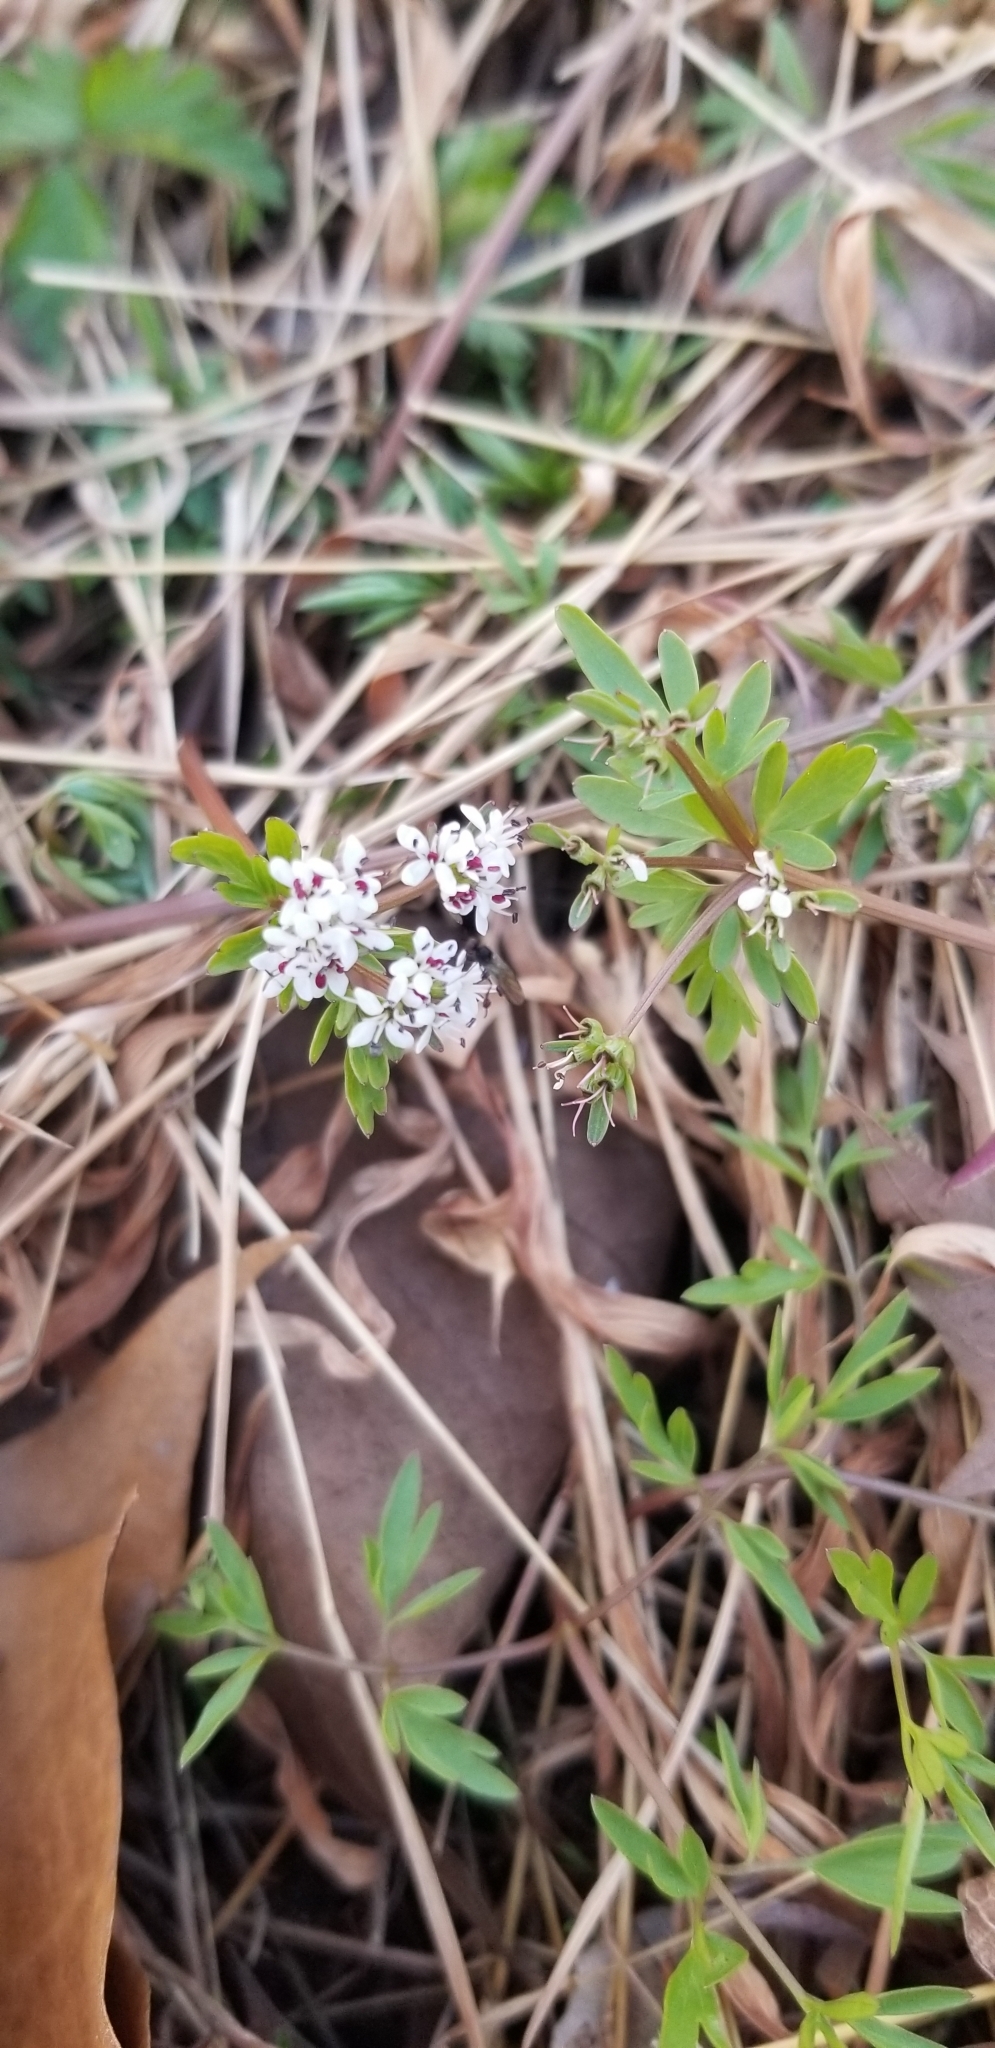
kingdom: Plantae
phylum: Tracheophyta
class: Magnoliopsida
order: Apiales
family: Apiaceae
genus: Erigenia
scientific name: Erigenia bulbosa
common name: Pepper-and-salt
